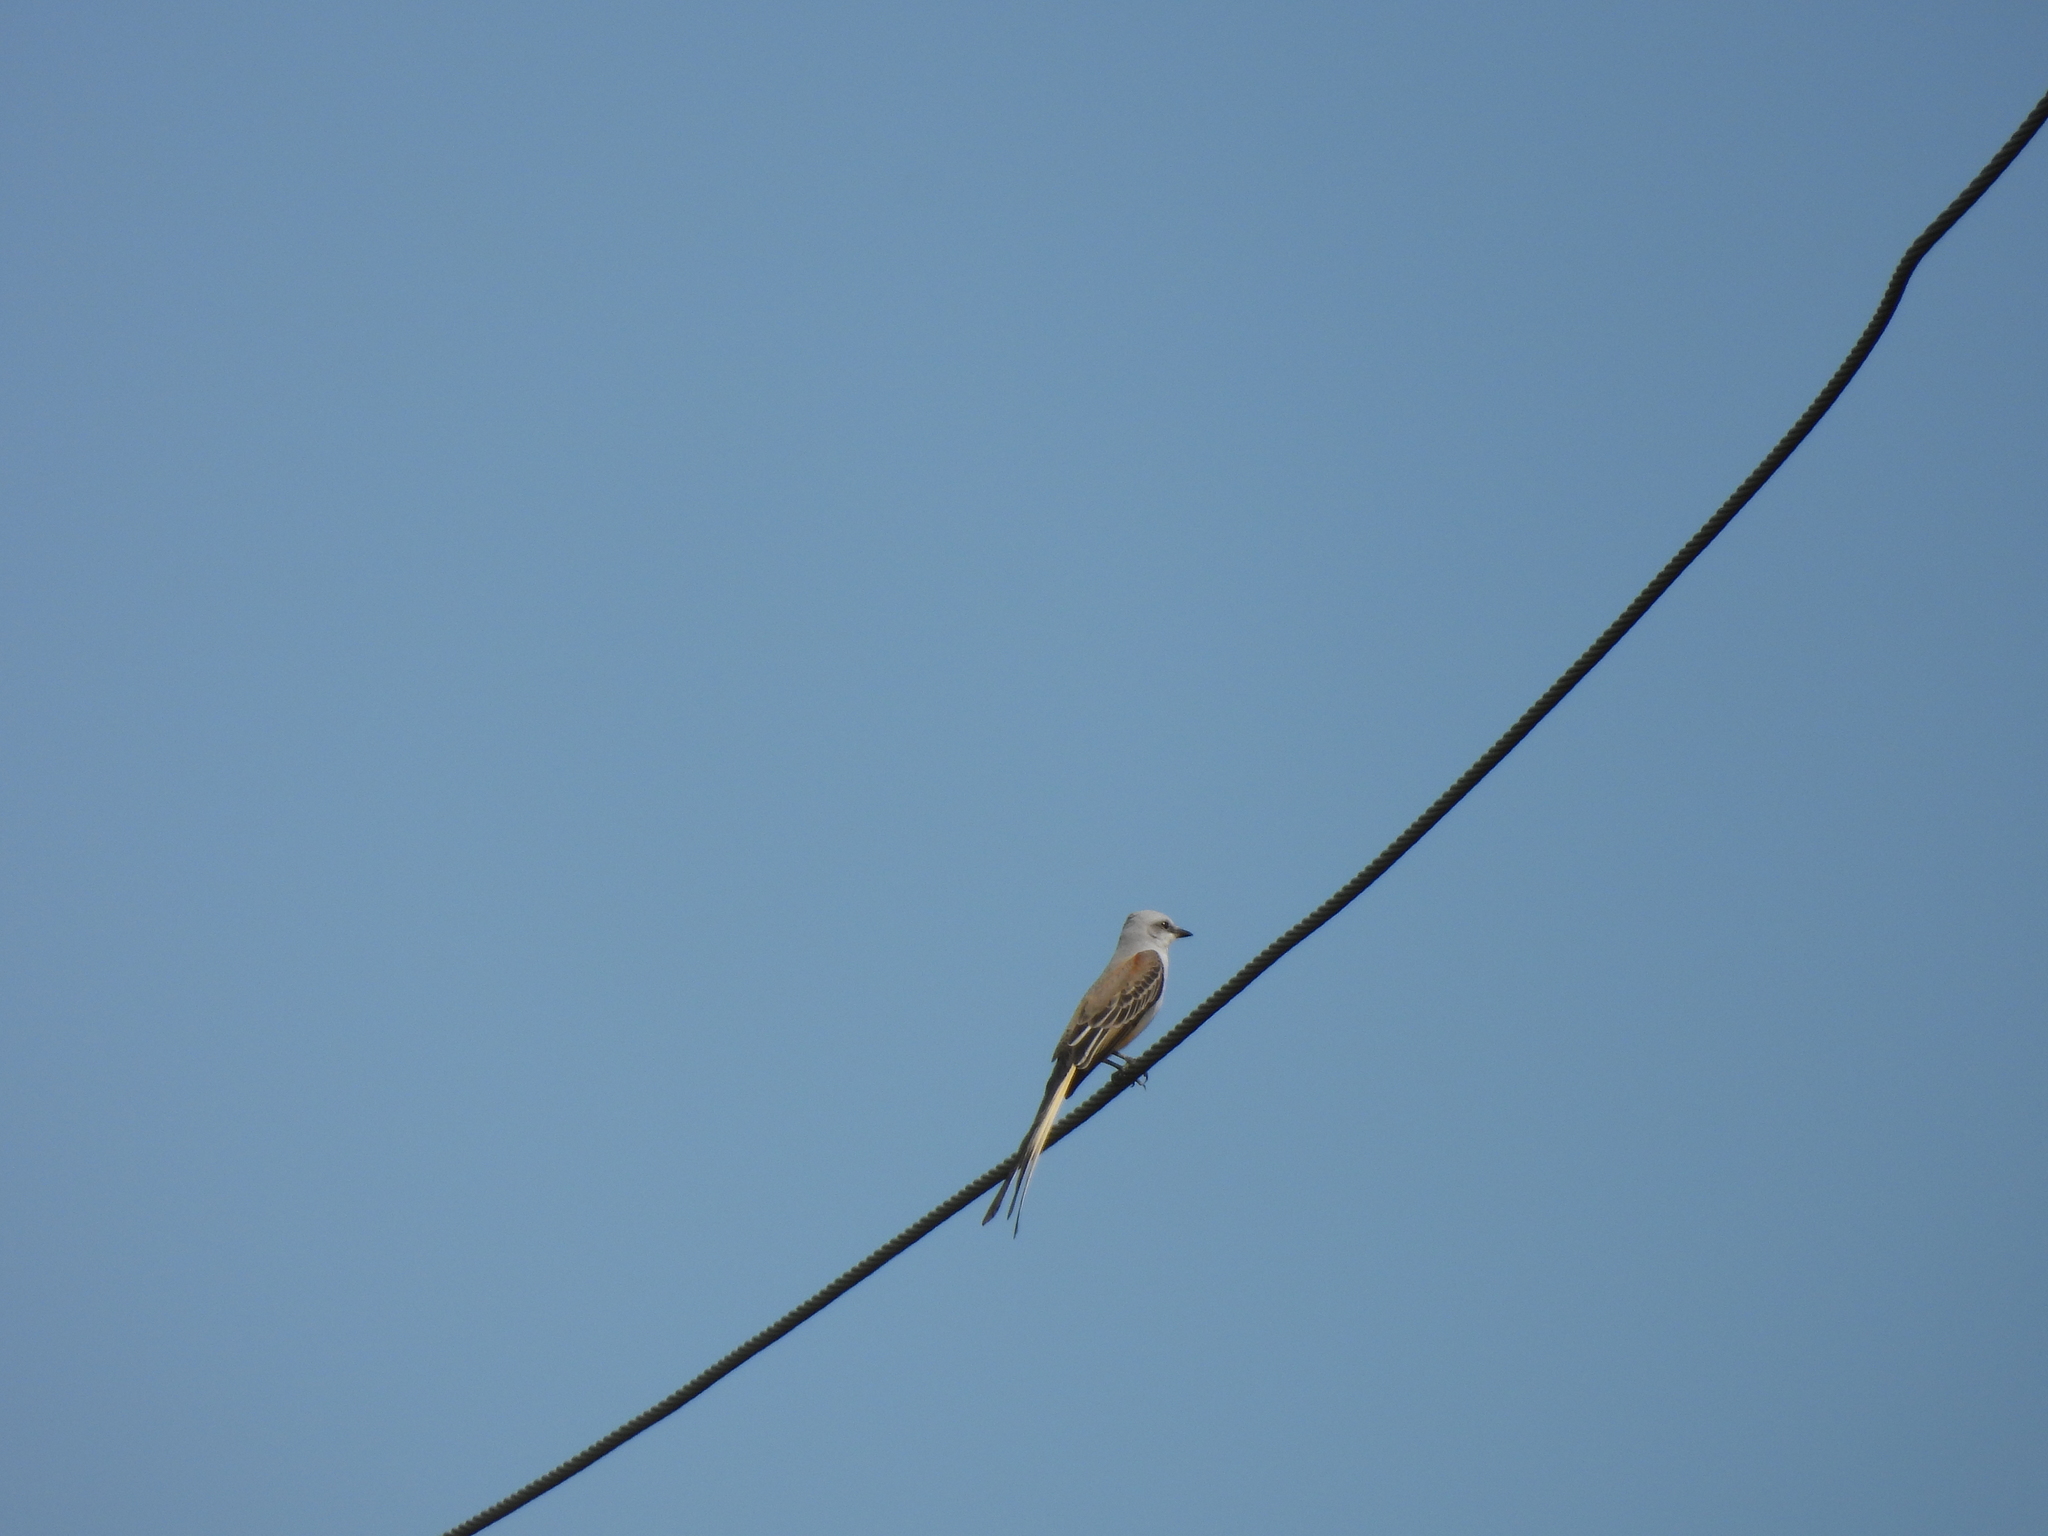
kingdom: Animalia
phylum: Chordata
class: Aves
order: Passeriformes
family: Tyrannidae
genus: Tyrannus
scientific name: Tyrannus forficatus
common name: Scissor-tailed flycatcher
